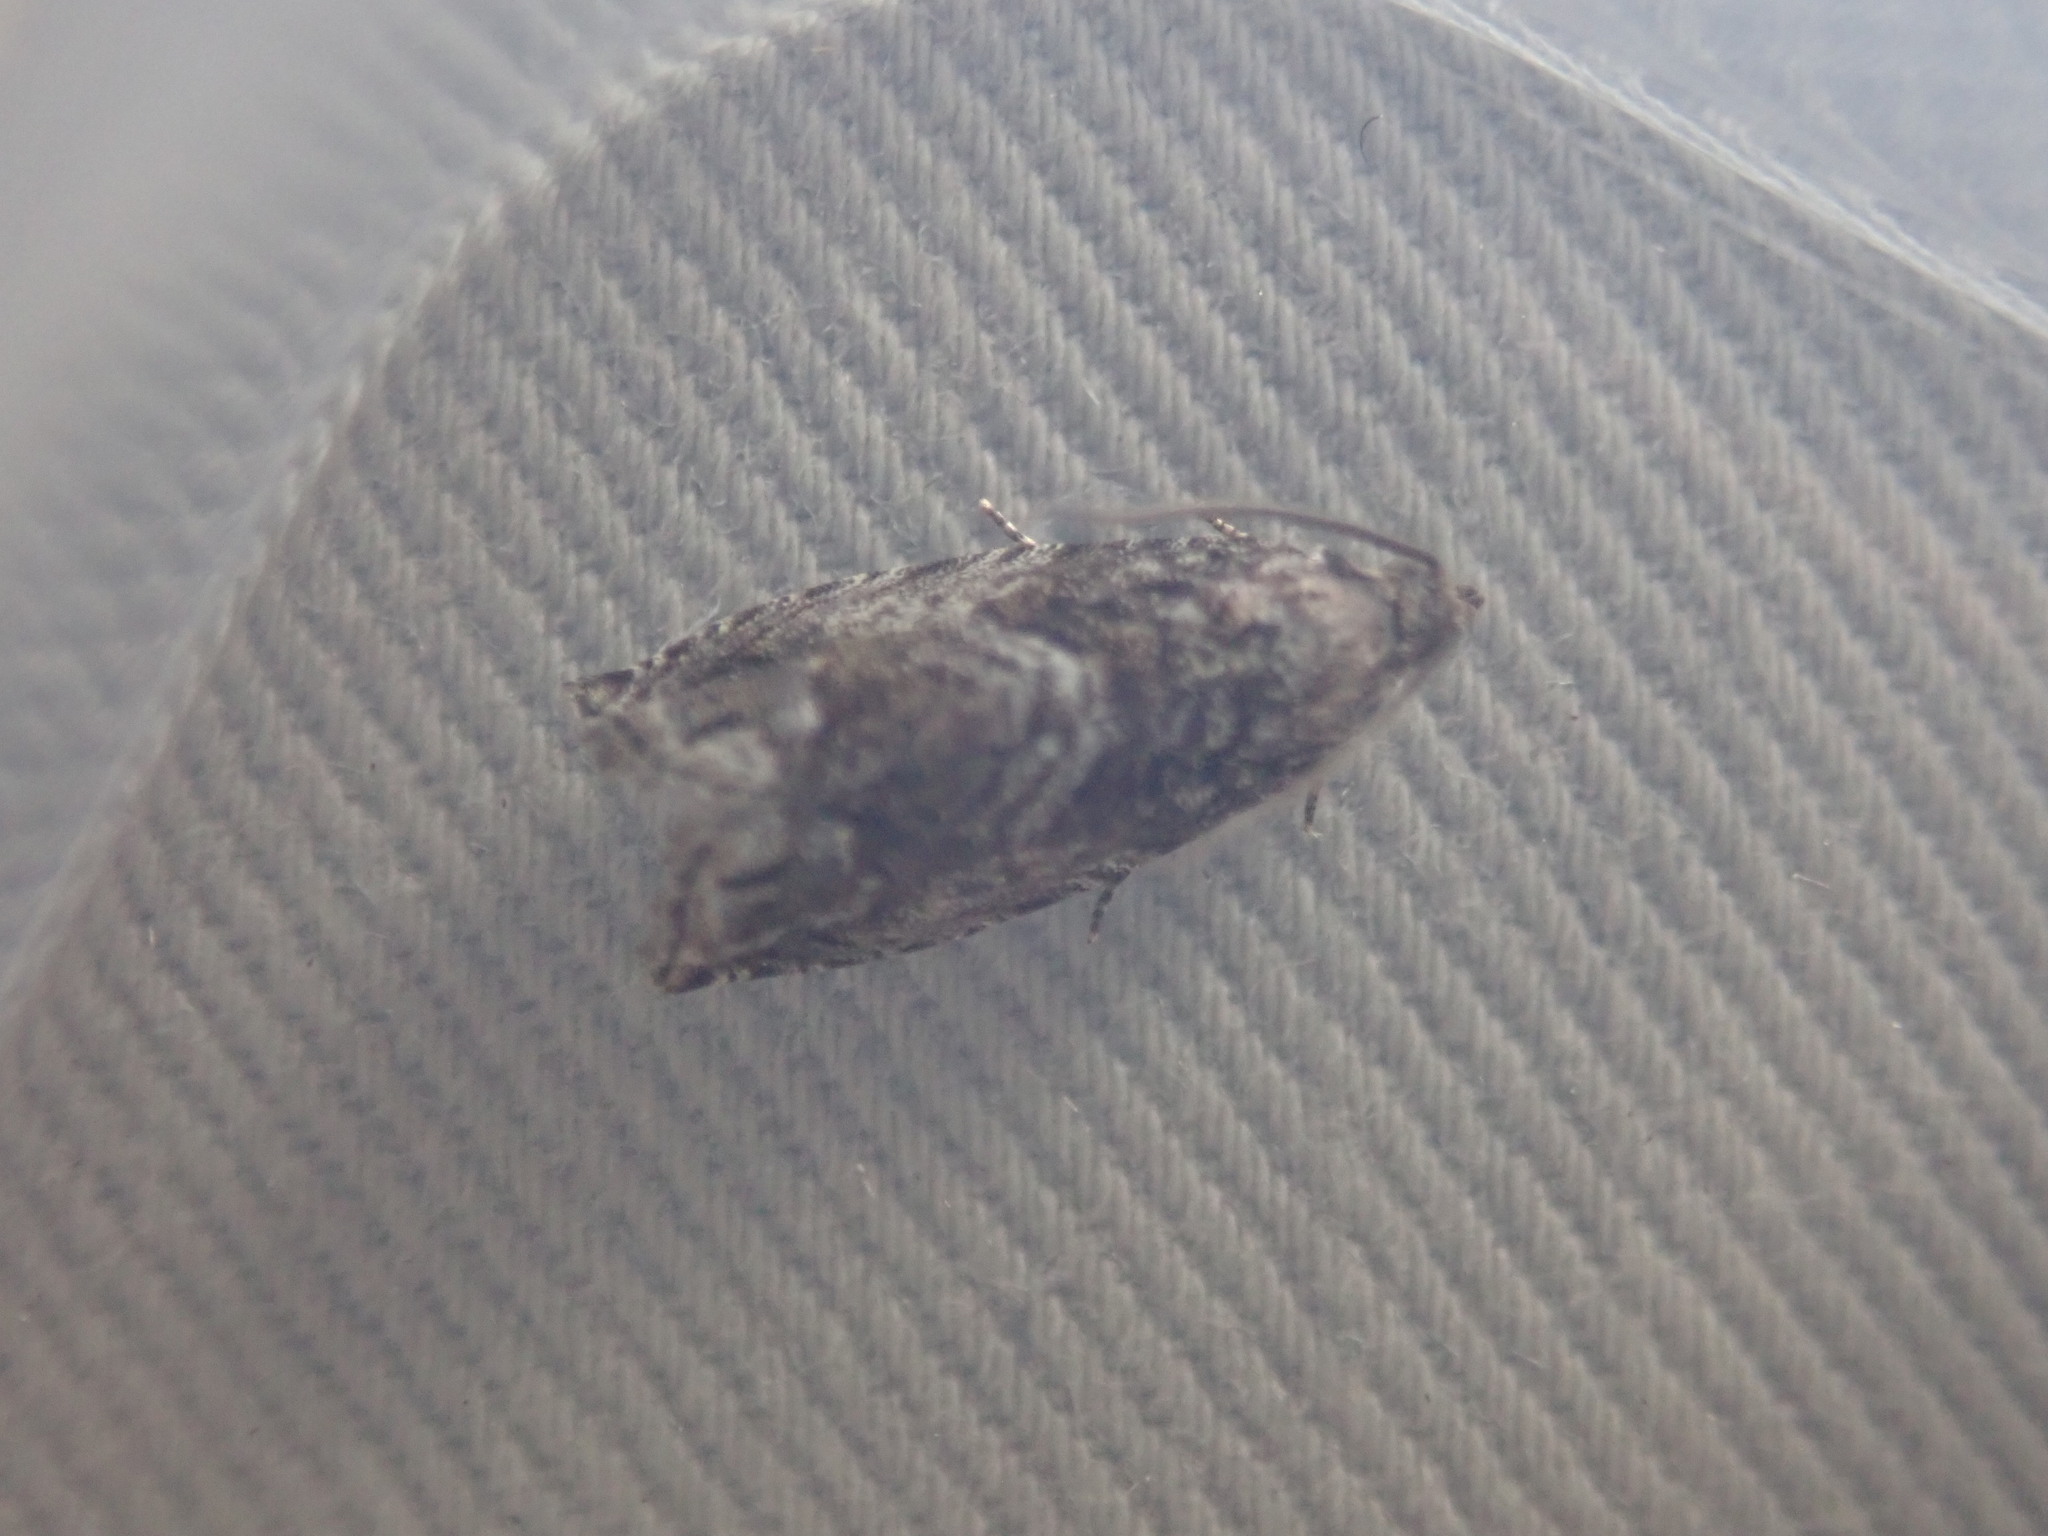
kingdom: Animalia
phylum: Arthropoda
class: Insecta
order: Lepidoptera
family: Tortricidae
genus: Cydia
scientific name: Cydia fagiglandana
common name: Large beech piercer
